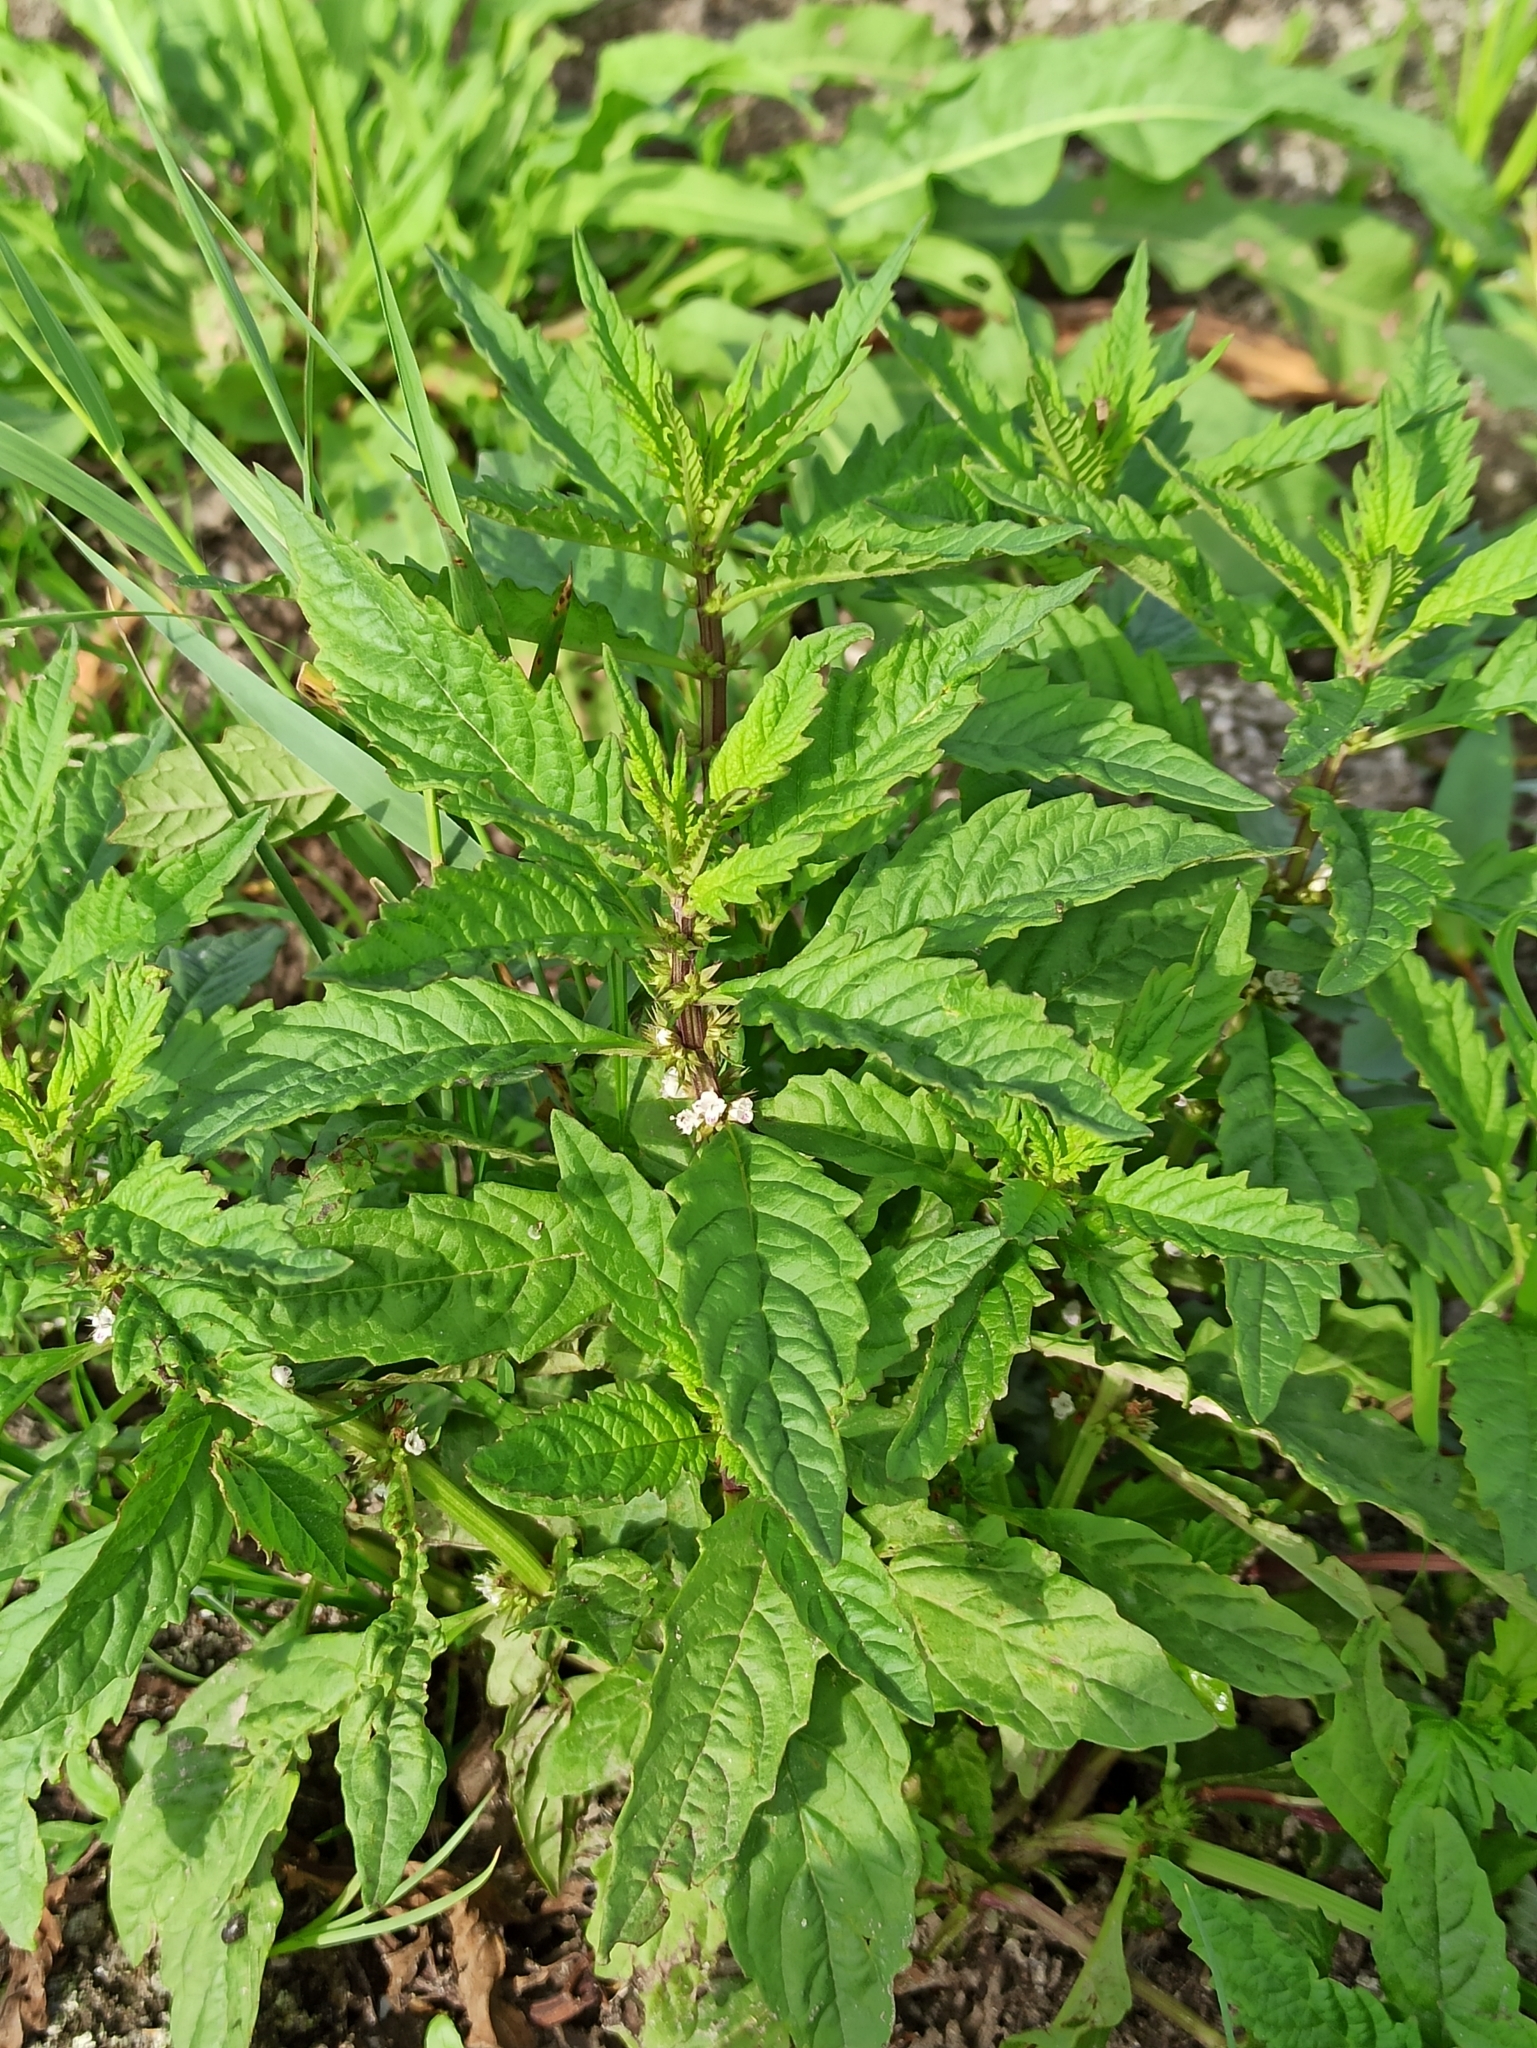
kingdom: Plantae
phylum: Tracheophyta
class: Magnoliopsida
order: Lamiales
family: Lamiaceae
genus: Lycopus
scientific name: Lycopus europaeus
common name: European bugleweed
